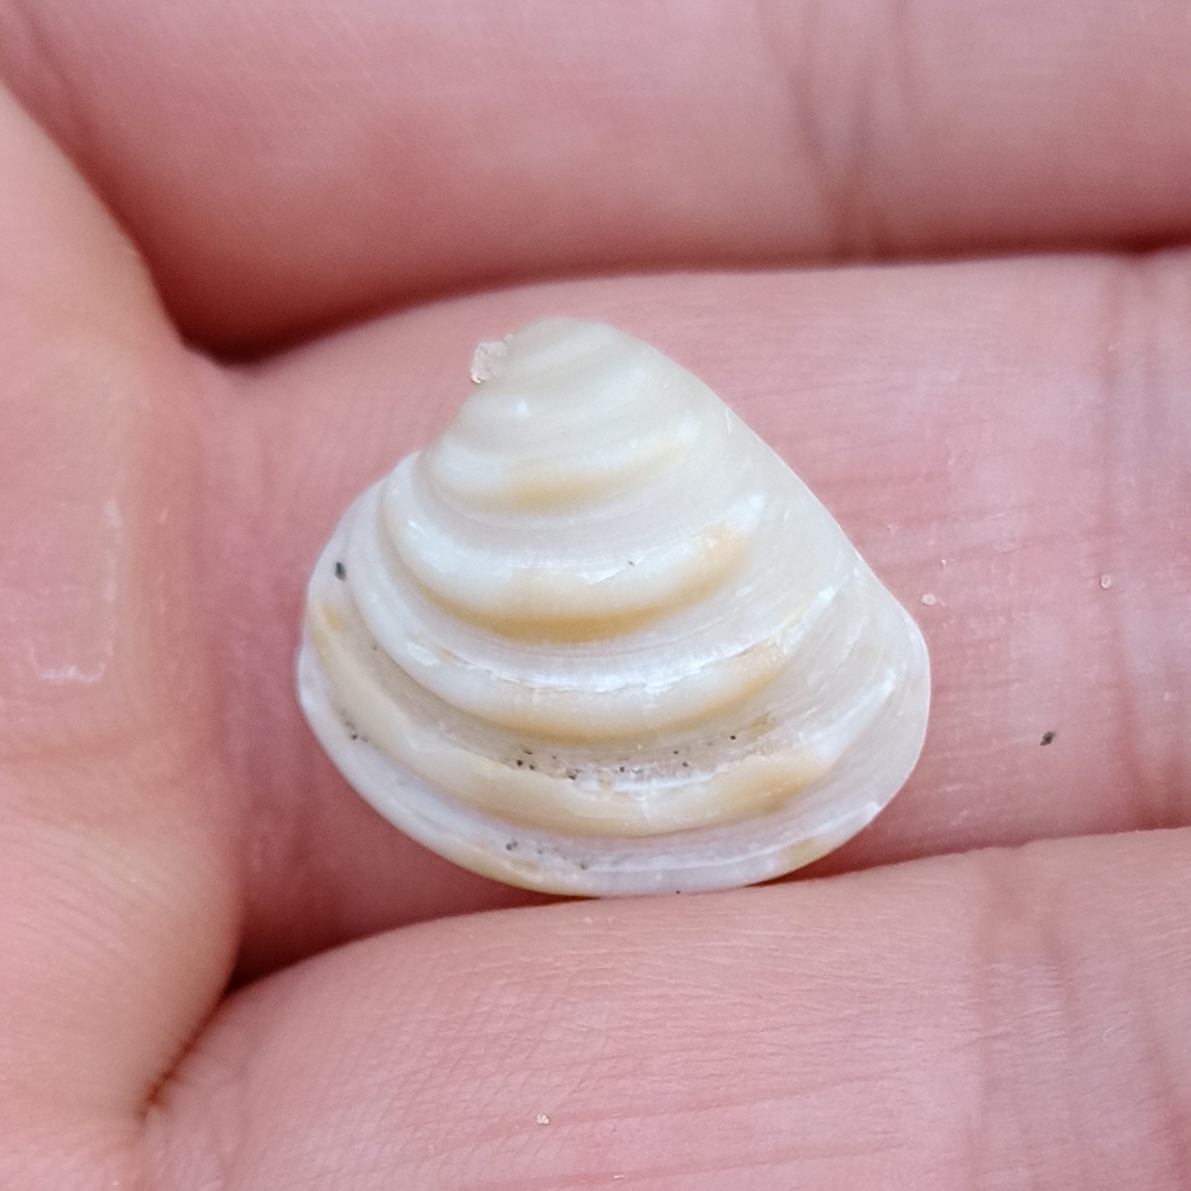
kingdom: Animalia
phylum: Mollusca
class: Bivalvia
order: Venerida
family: Veneridae
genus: Lirophora
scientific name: Lirophora paphia
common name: King venus
